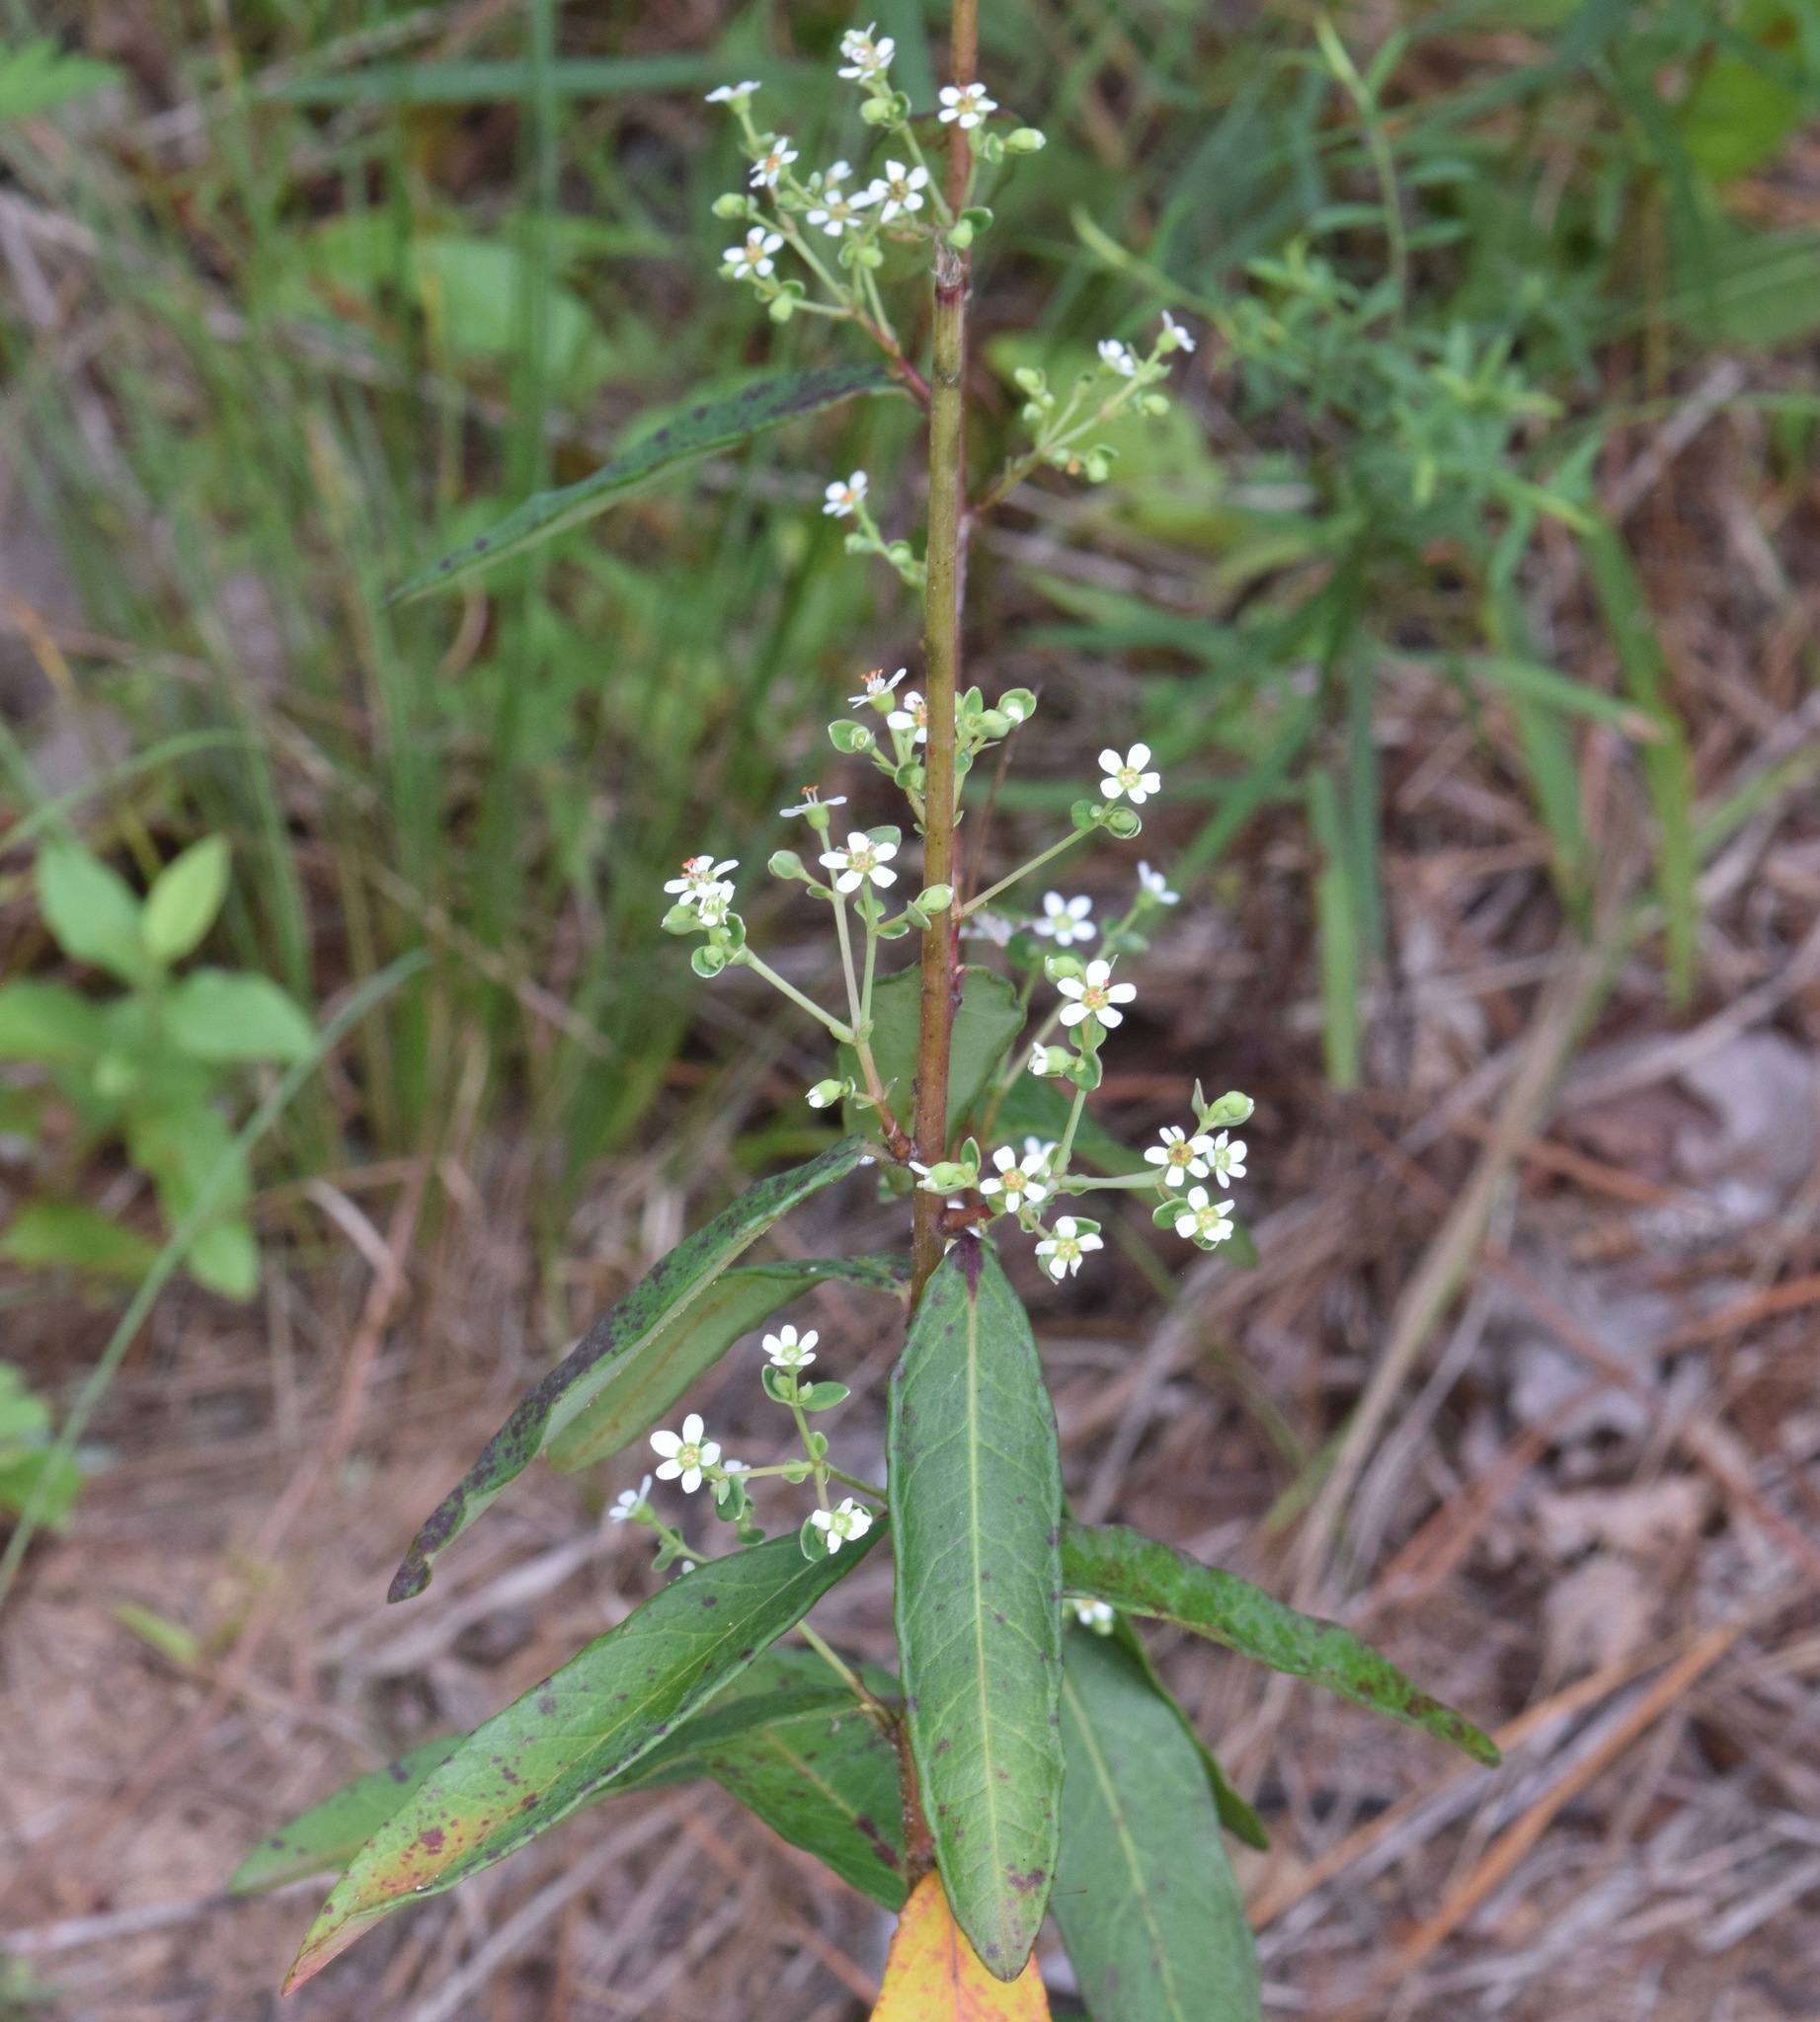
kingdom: Plantae
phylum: Tracheophyta
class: Magnoliopsida
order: Malpighiales
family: Euphorbiaceae
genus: Euphorbia
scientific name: Euphorbia corollata
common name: Flowering spurge
